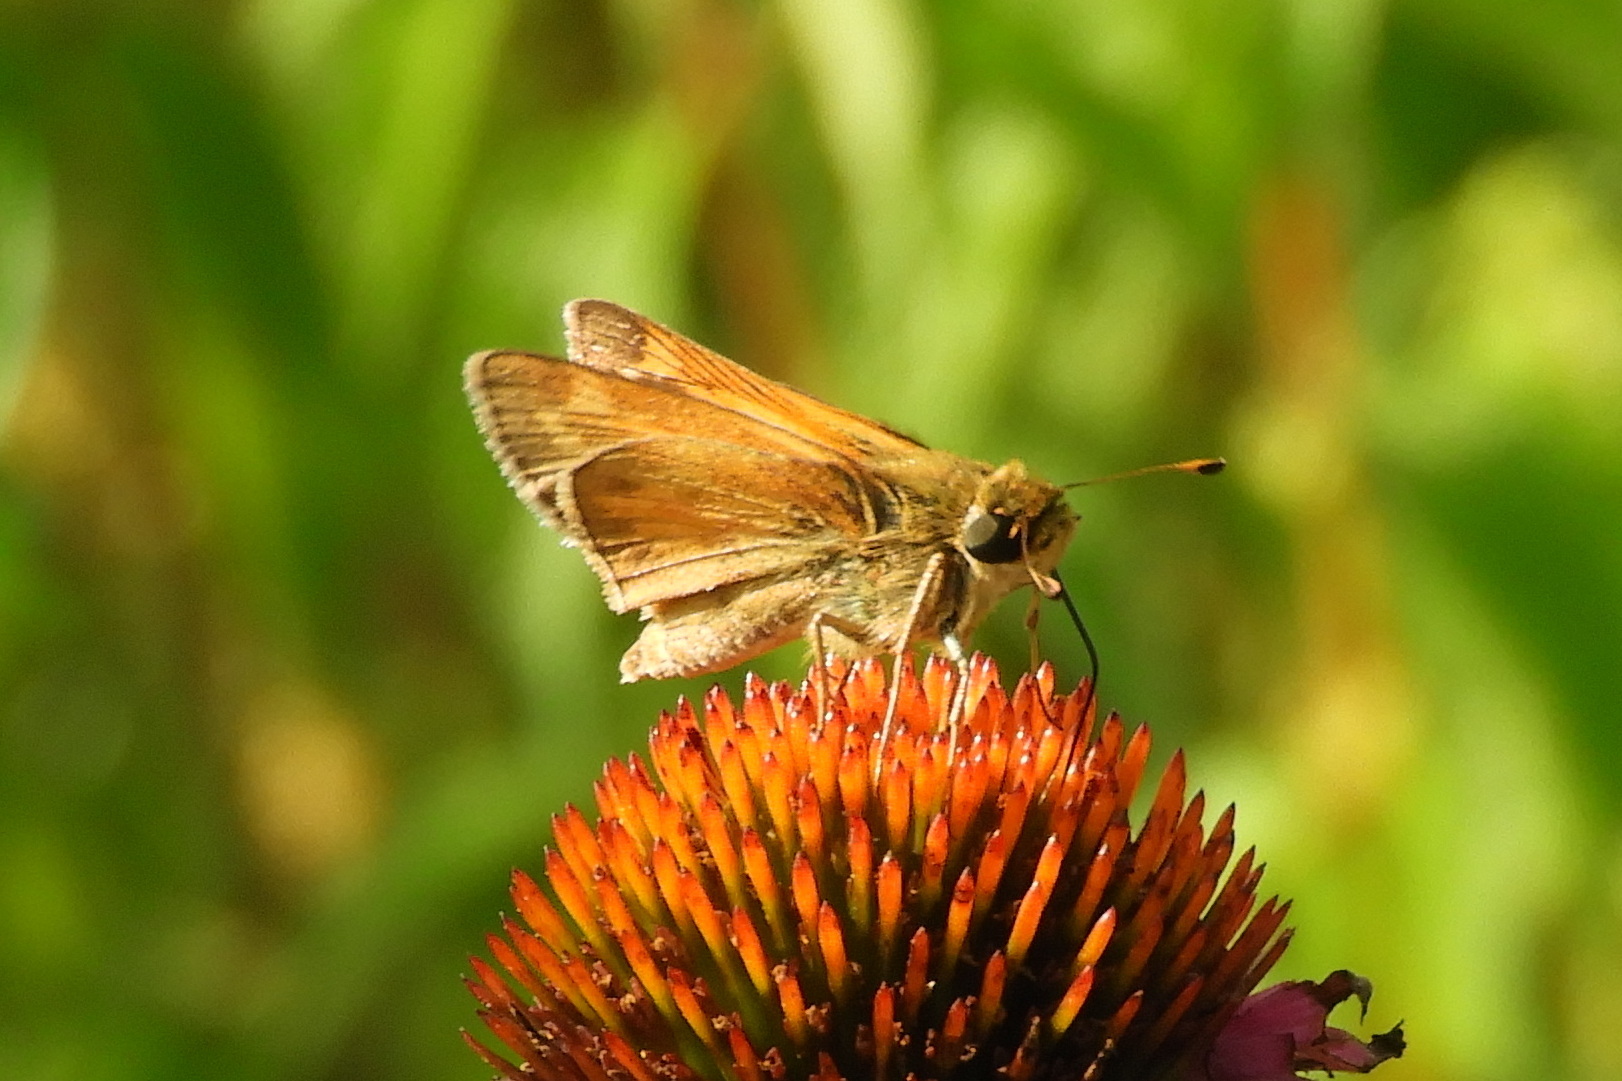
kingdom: Animalia
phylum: Arthropoda
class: Insecta
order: Lepidoptera
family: Hesperiidae
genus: Atalopedes
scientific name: Atalopedes
